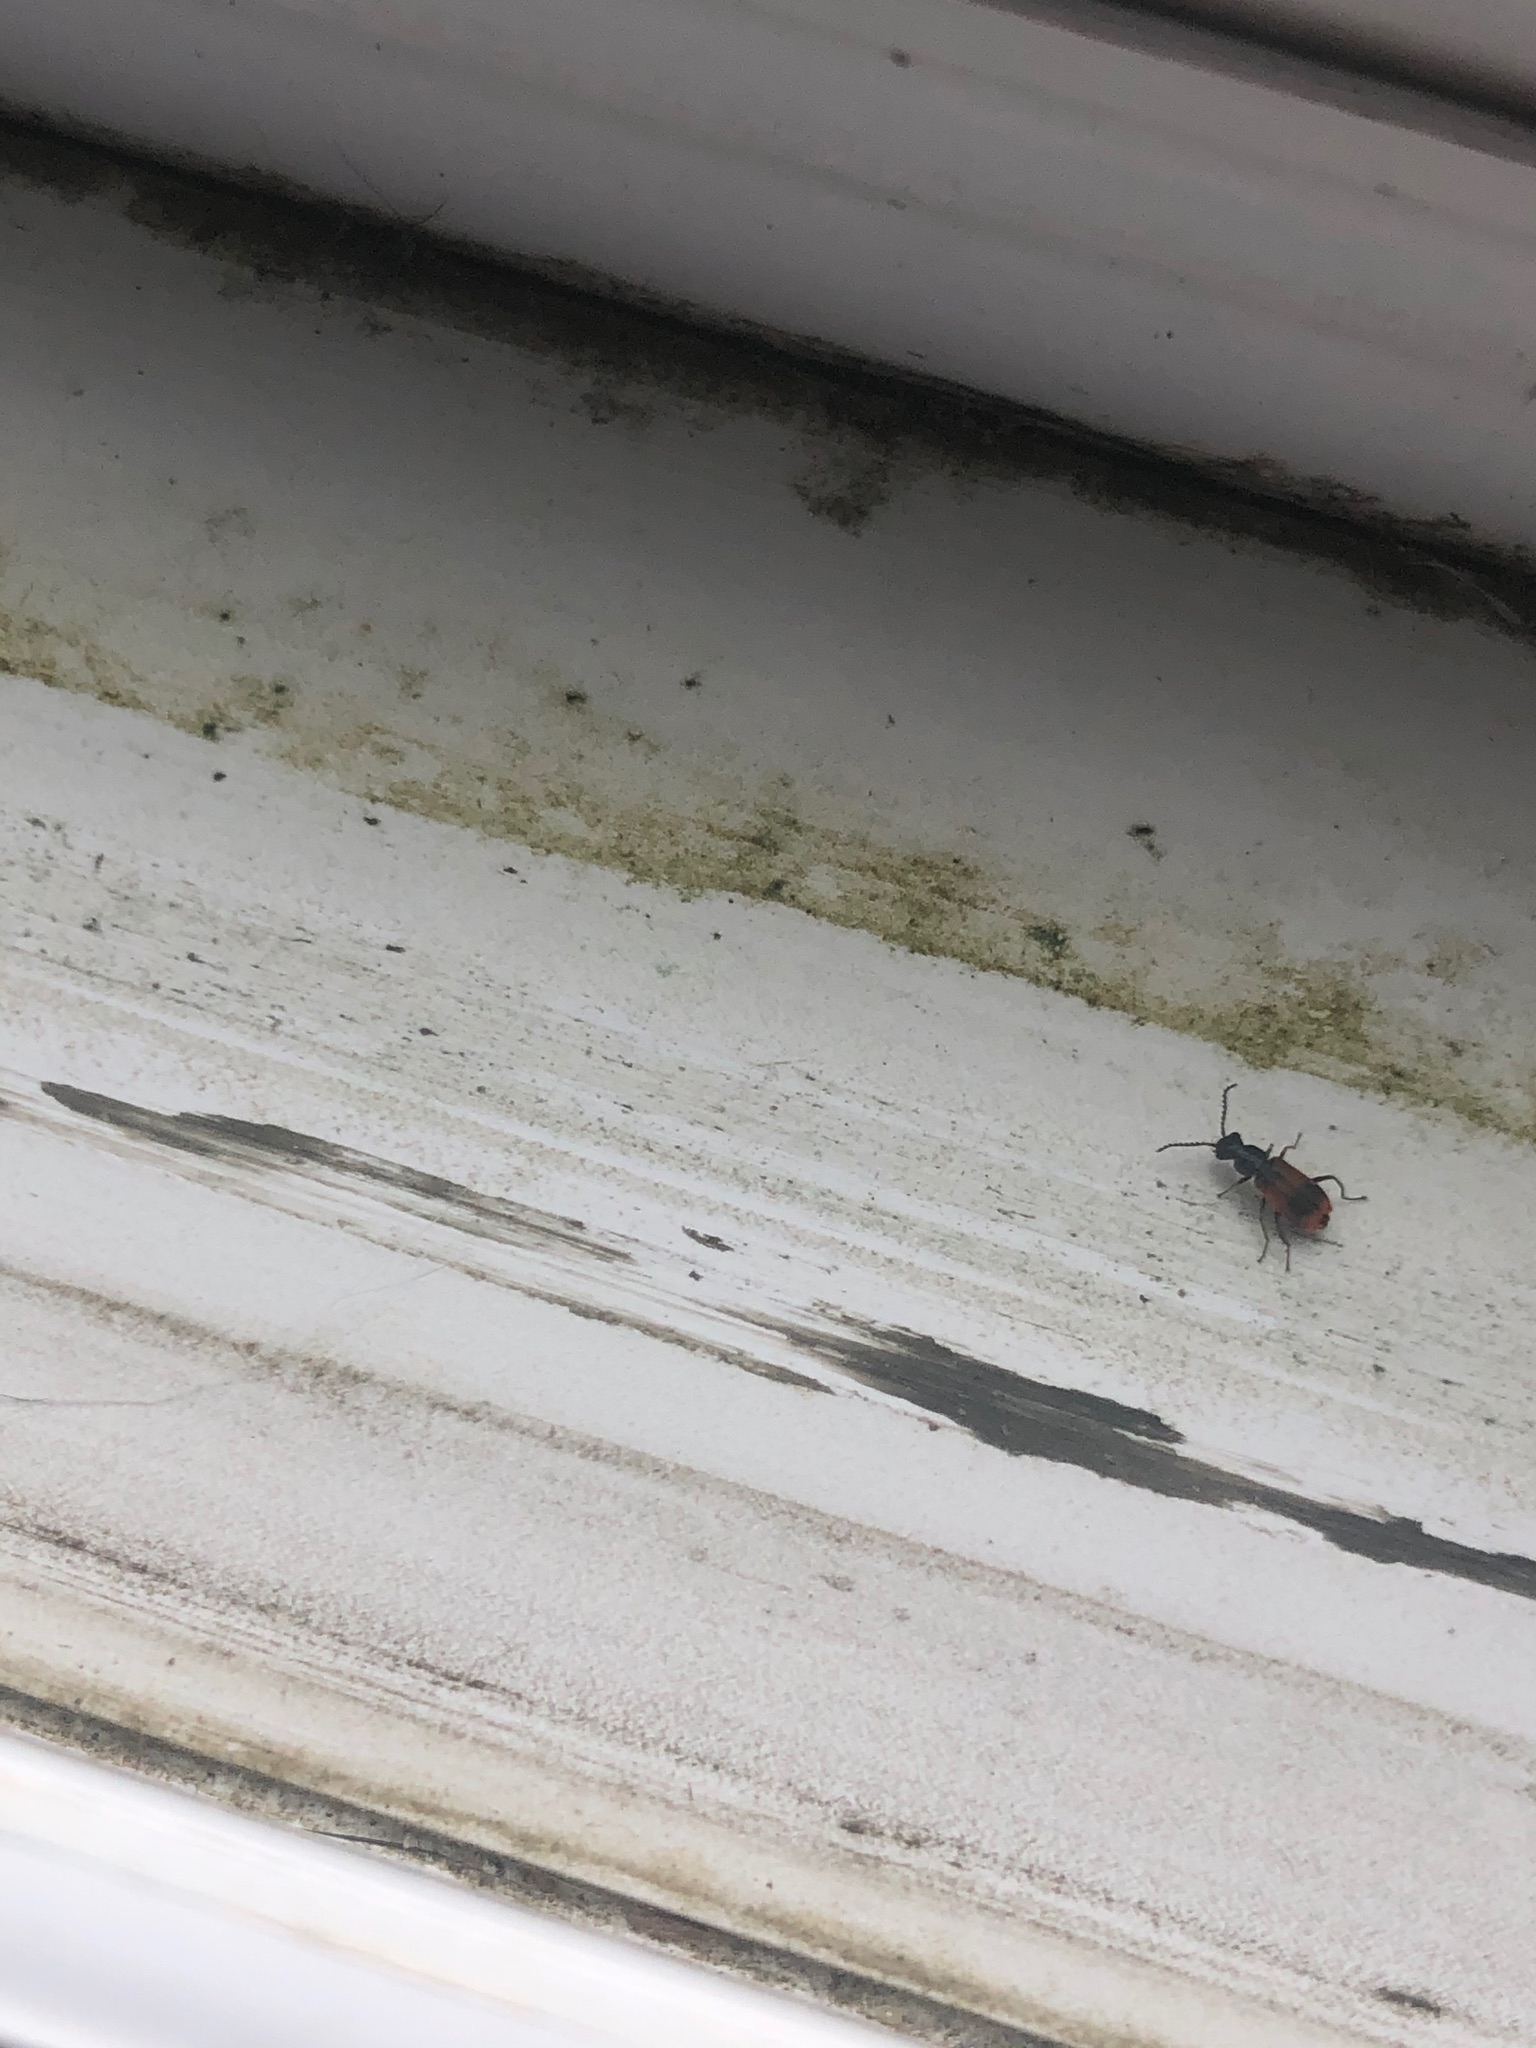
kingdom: Animalia
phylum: Arthropoda
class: Insecta
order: Coleoptera
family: Melyridae
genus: Anthocomus
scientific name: Anthocomus equestris
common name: Black-banded soft-winged flower beetle
